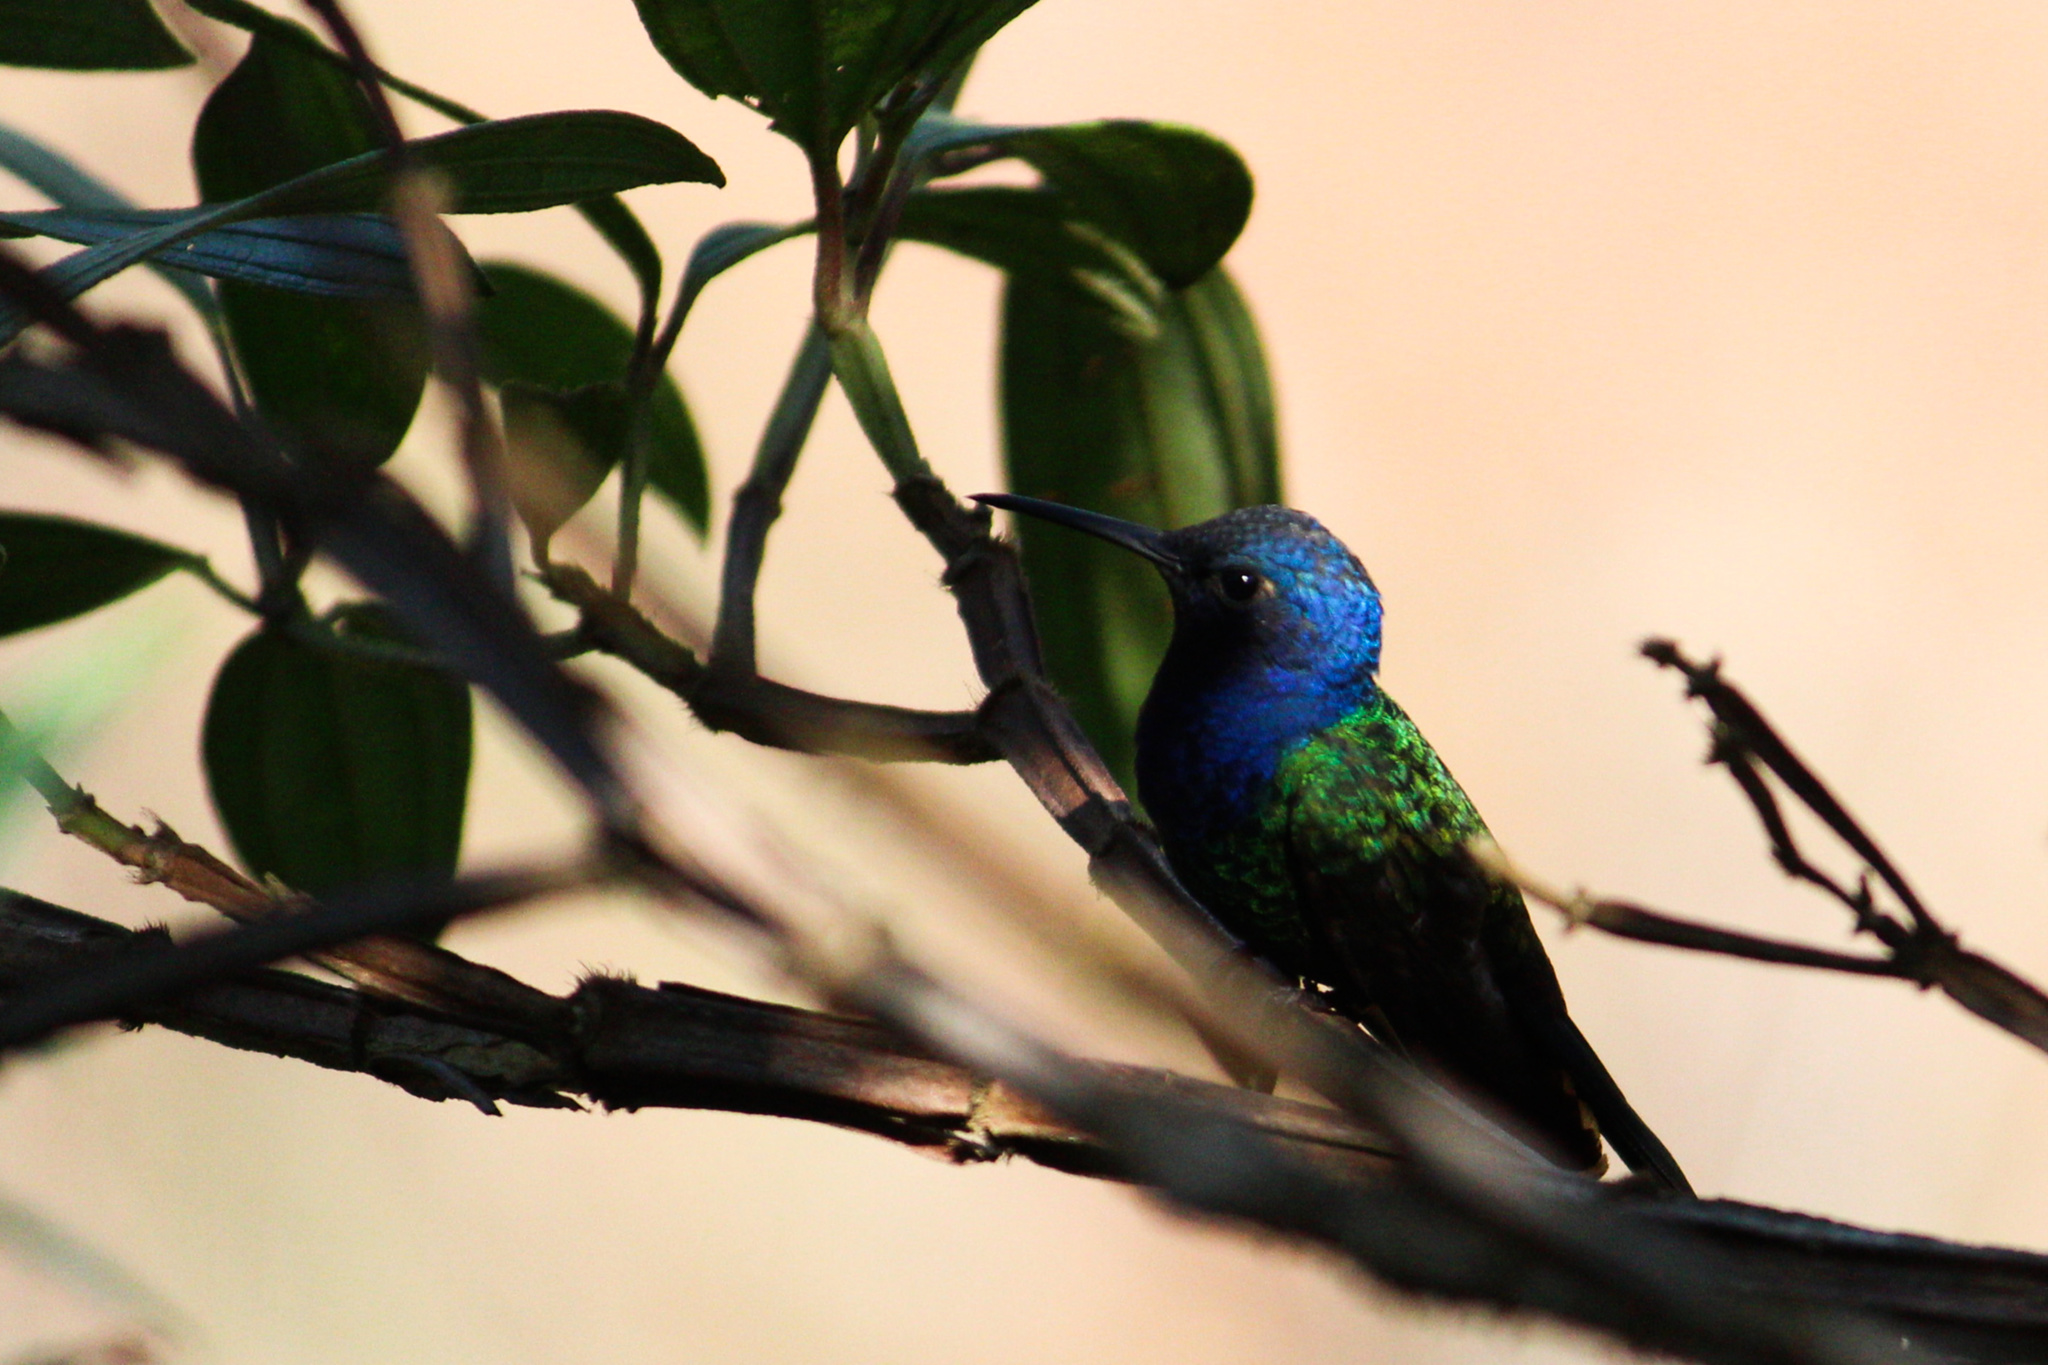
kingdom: Animalia
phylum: Chordata
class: Aves
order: Apodiformes
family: Trochilidae
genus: Eupetomena
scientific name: Eupetomena macroura
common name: Swallow-tailed hummingbird
